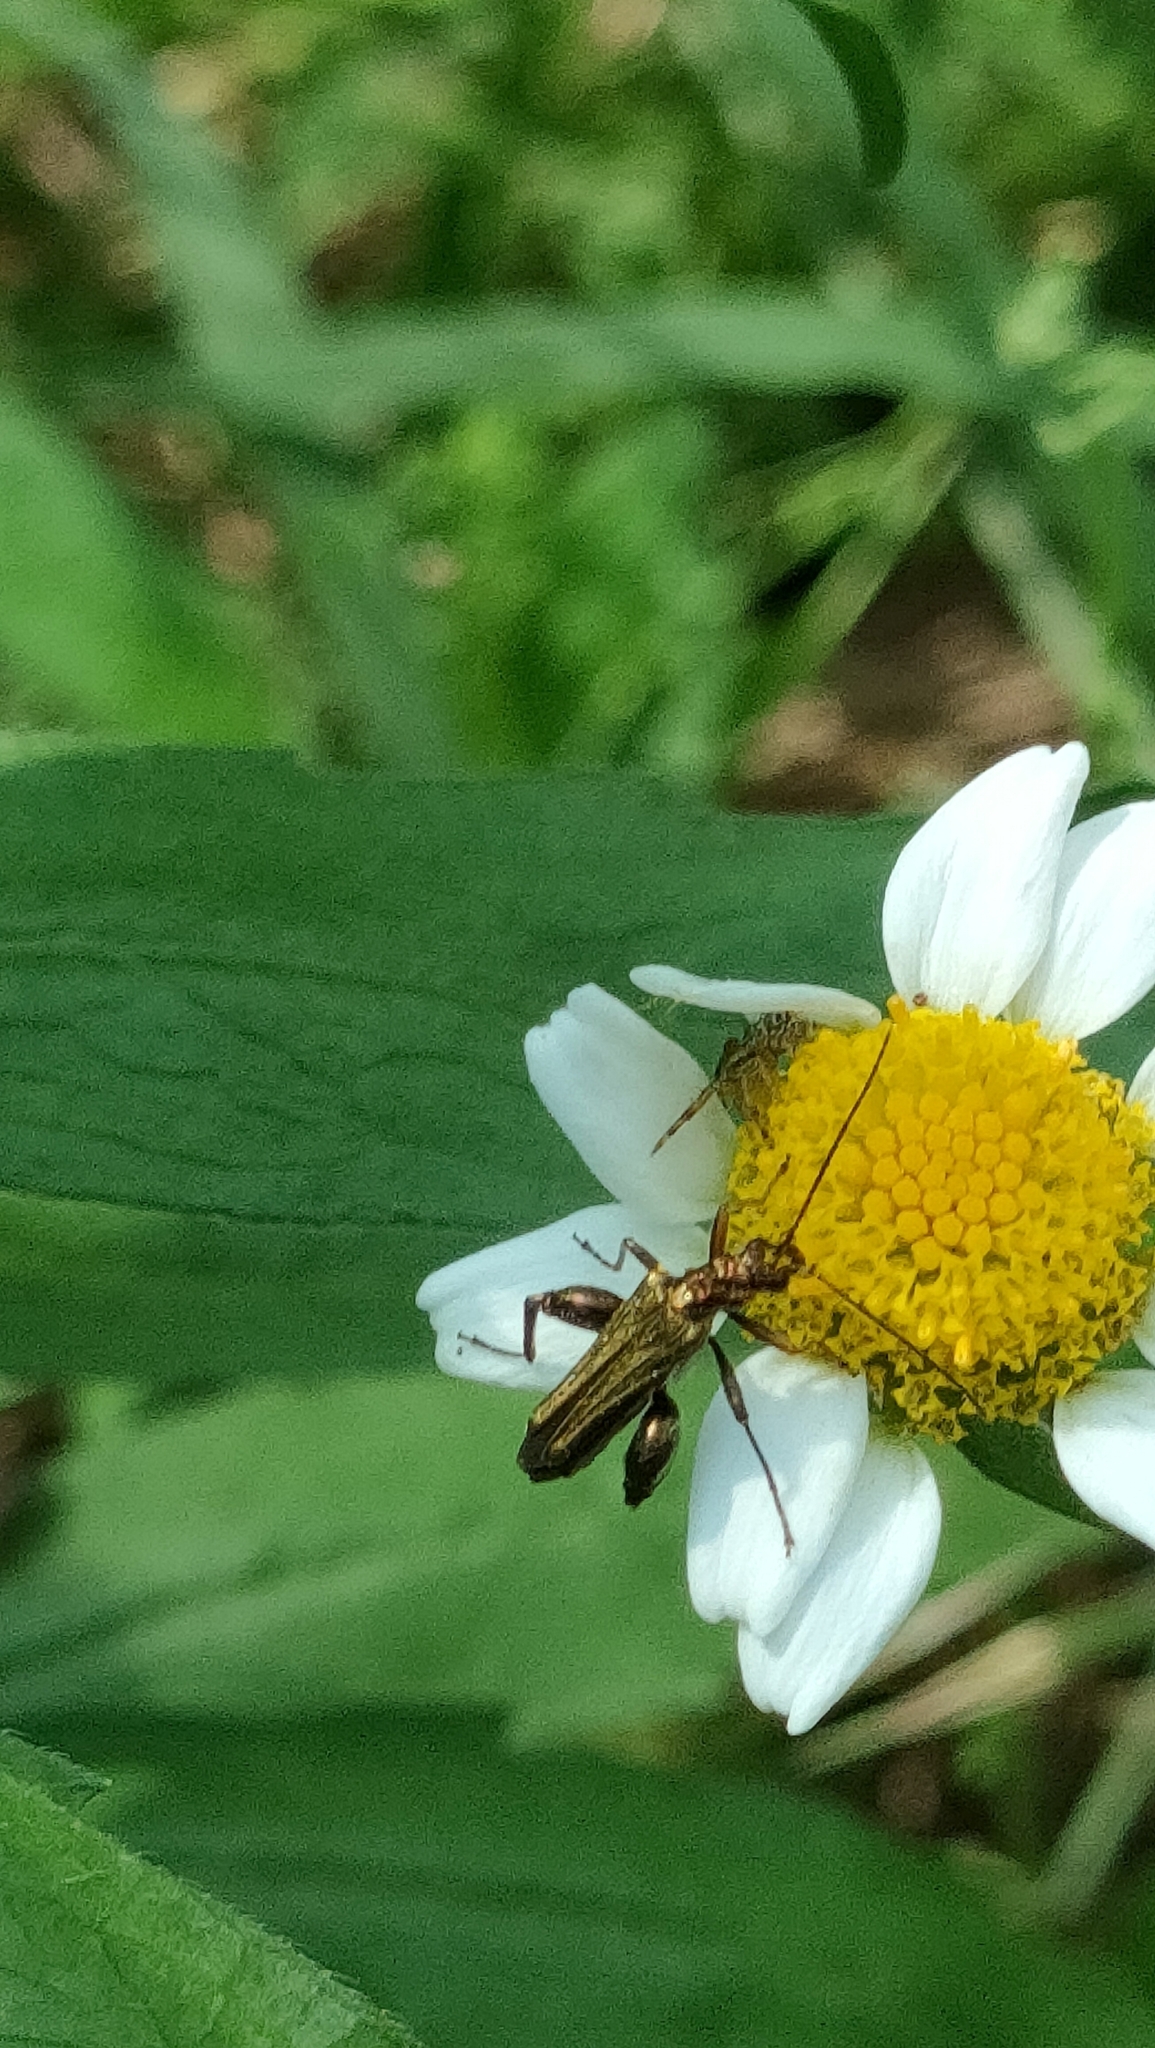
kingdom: Animalia
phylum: Arthropoda
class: Insecta
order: Coleoptera
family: Oedemeridae
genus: Oedemera
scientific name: Oedemera flavipes
